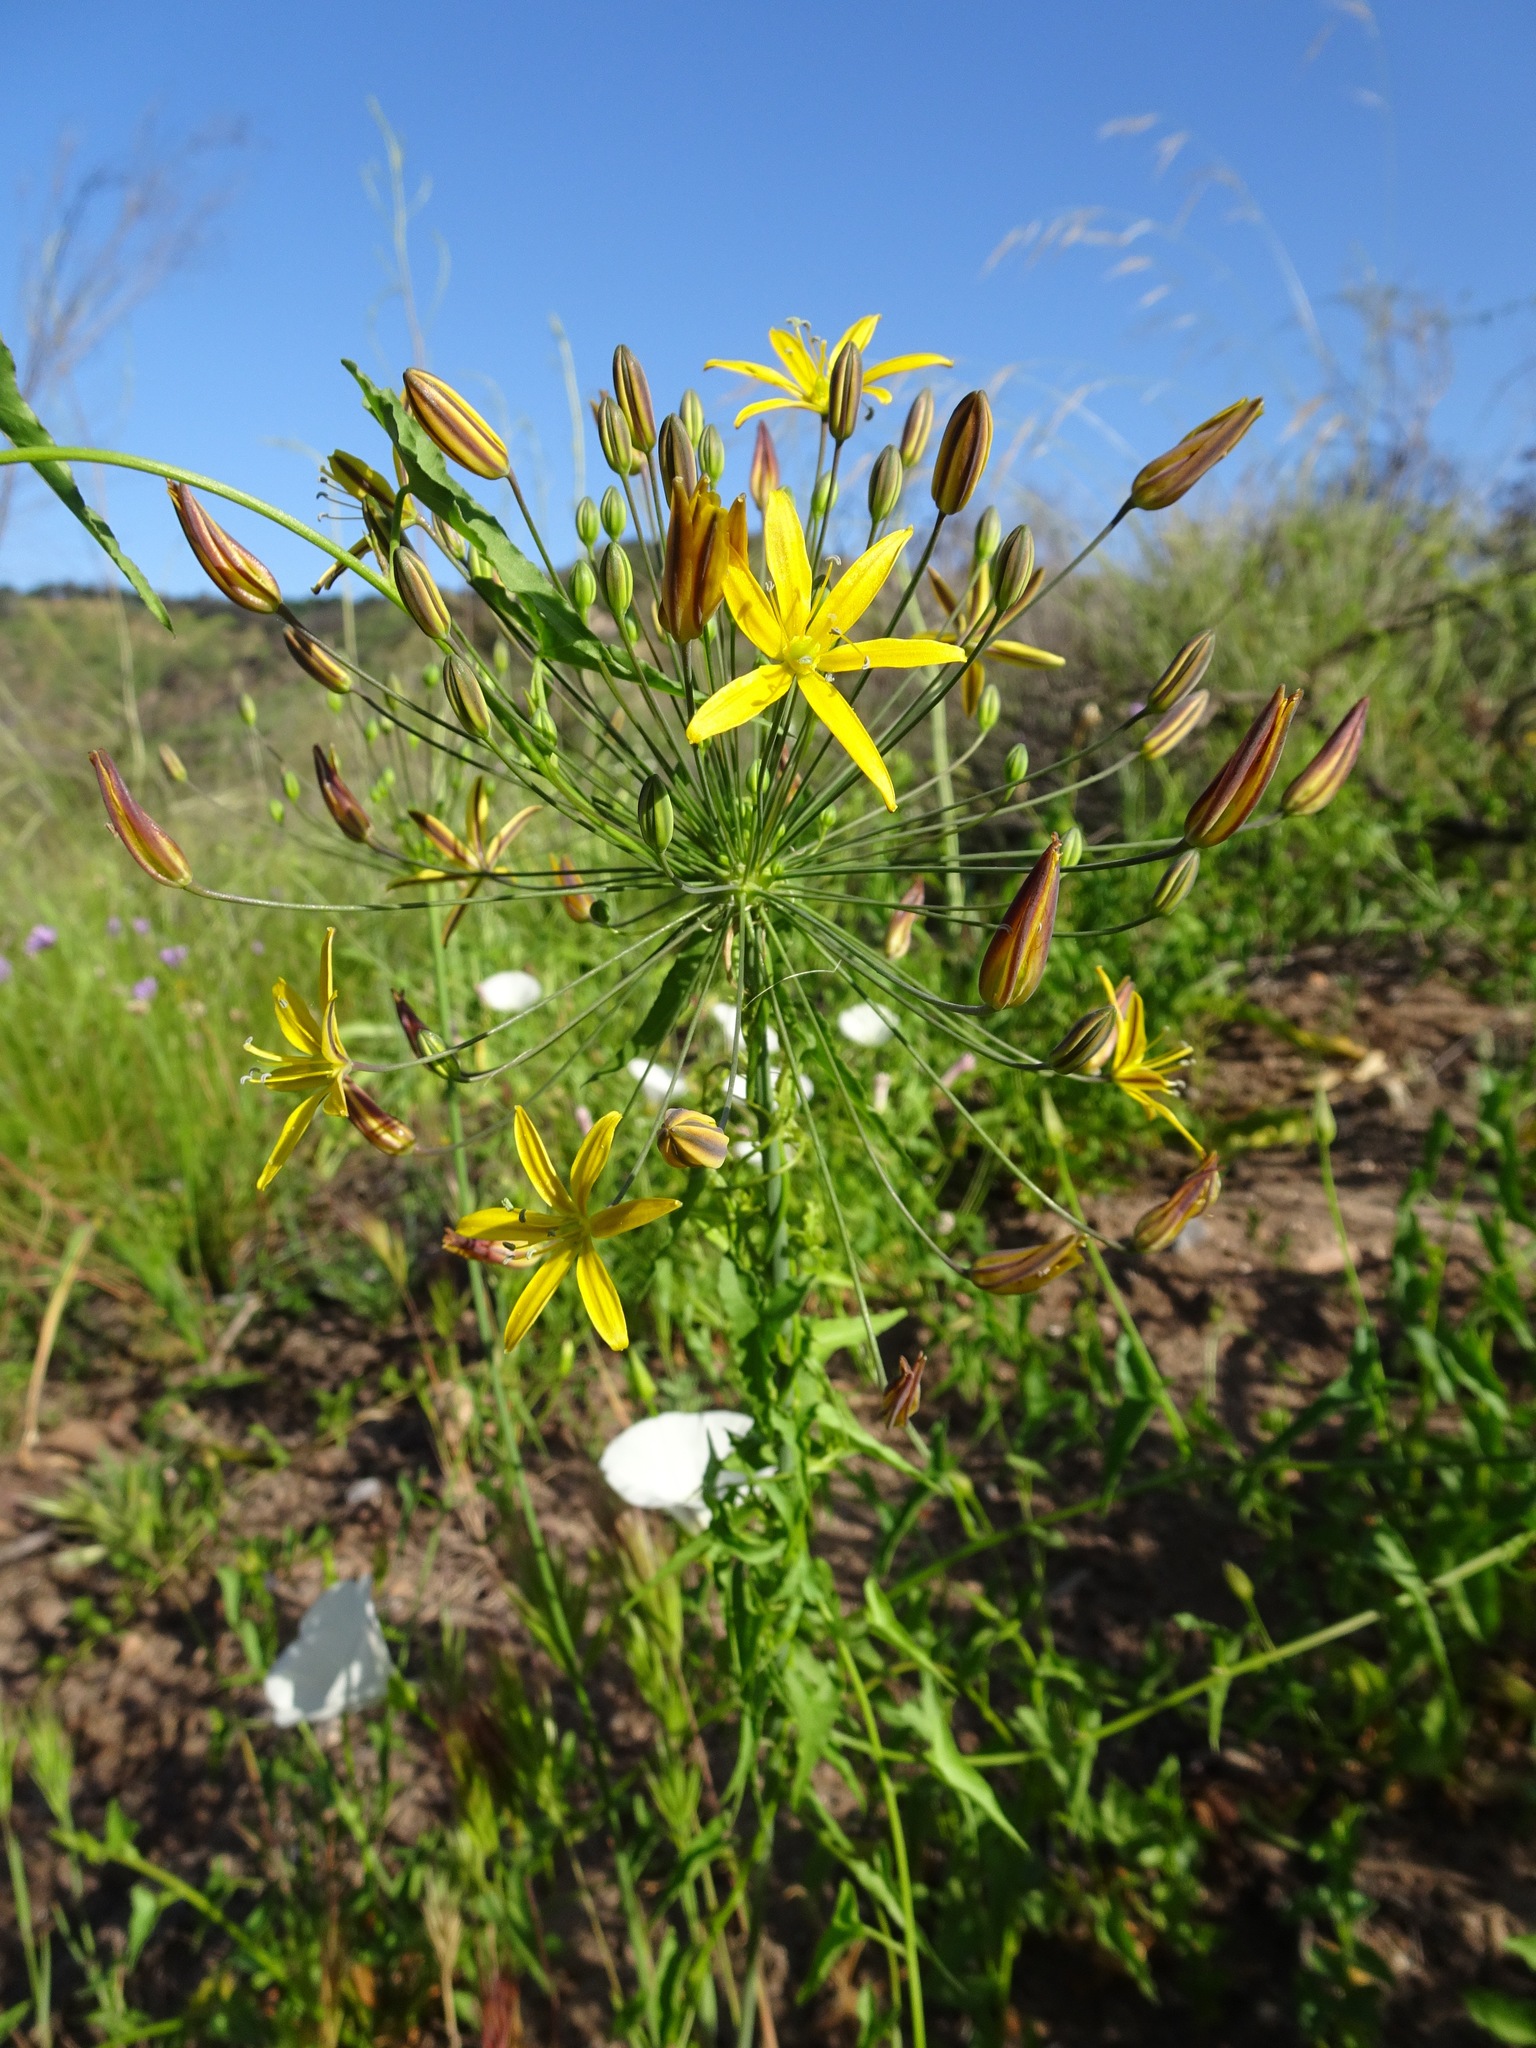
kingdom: Plantae
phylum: Tracheophyta
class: Liliopsida
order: Asparagales
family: Asparagaceae
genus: Bloomeria
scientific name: Bloomeria crocea
